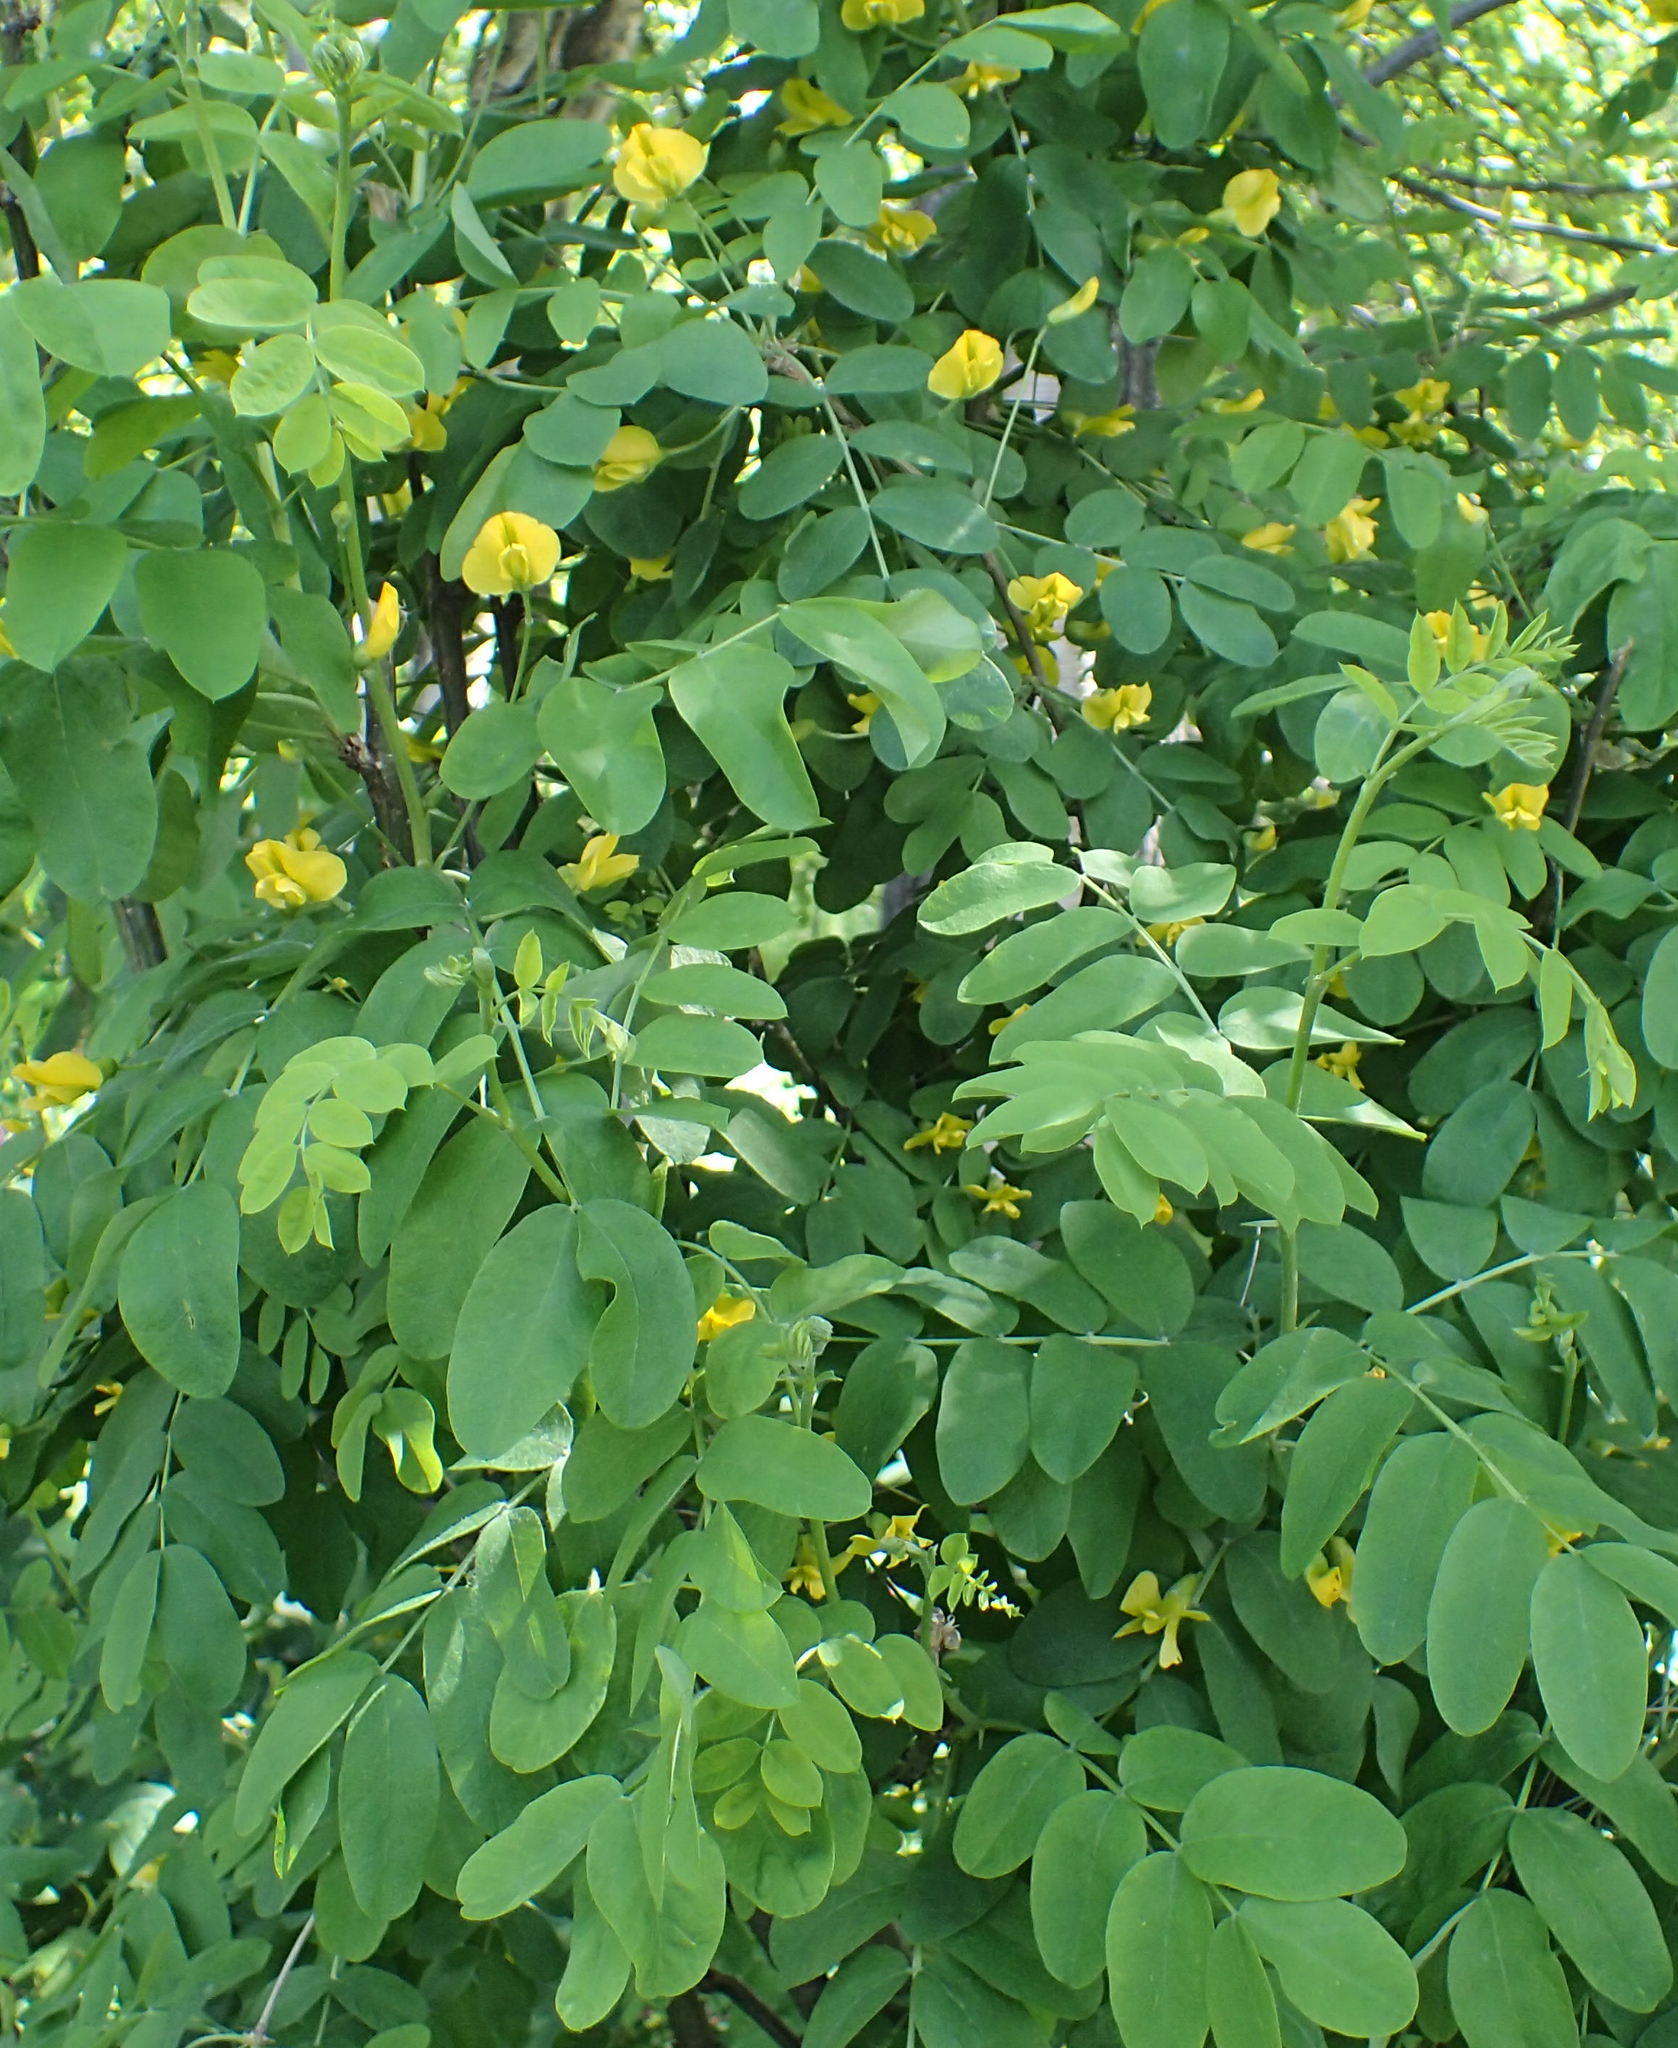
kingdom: Plantae
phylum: Tracheophyta
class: Magnoliopsida
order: Fabales
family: Fabaceae
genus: Caragana
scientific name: Caragana arborescens
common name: Siberian peashrub
